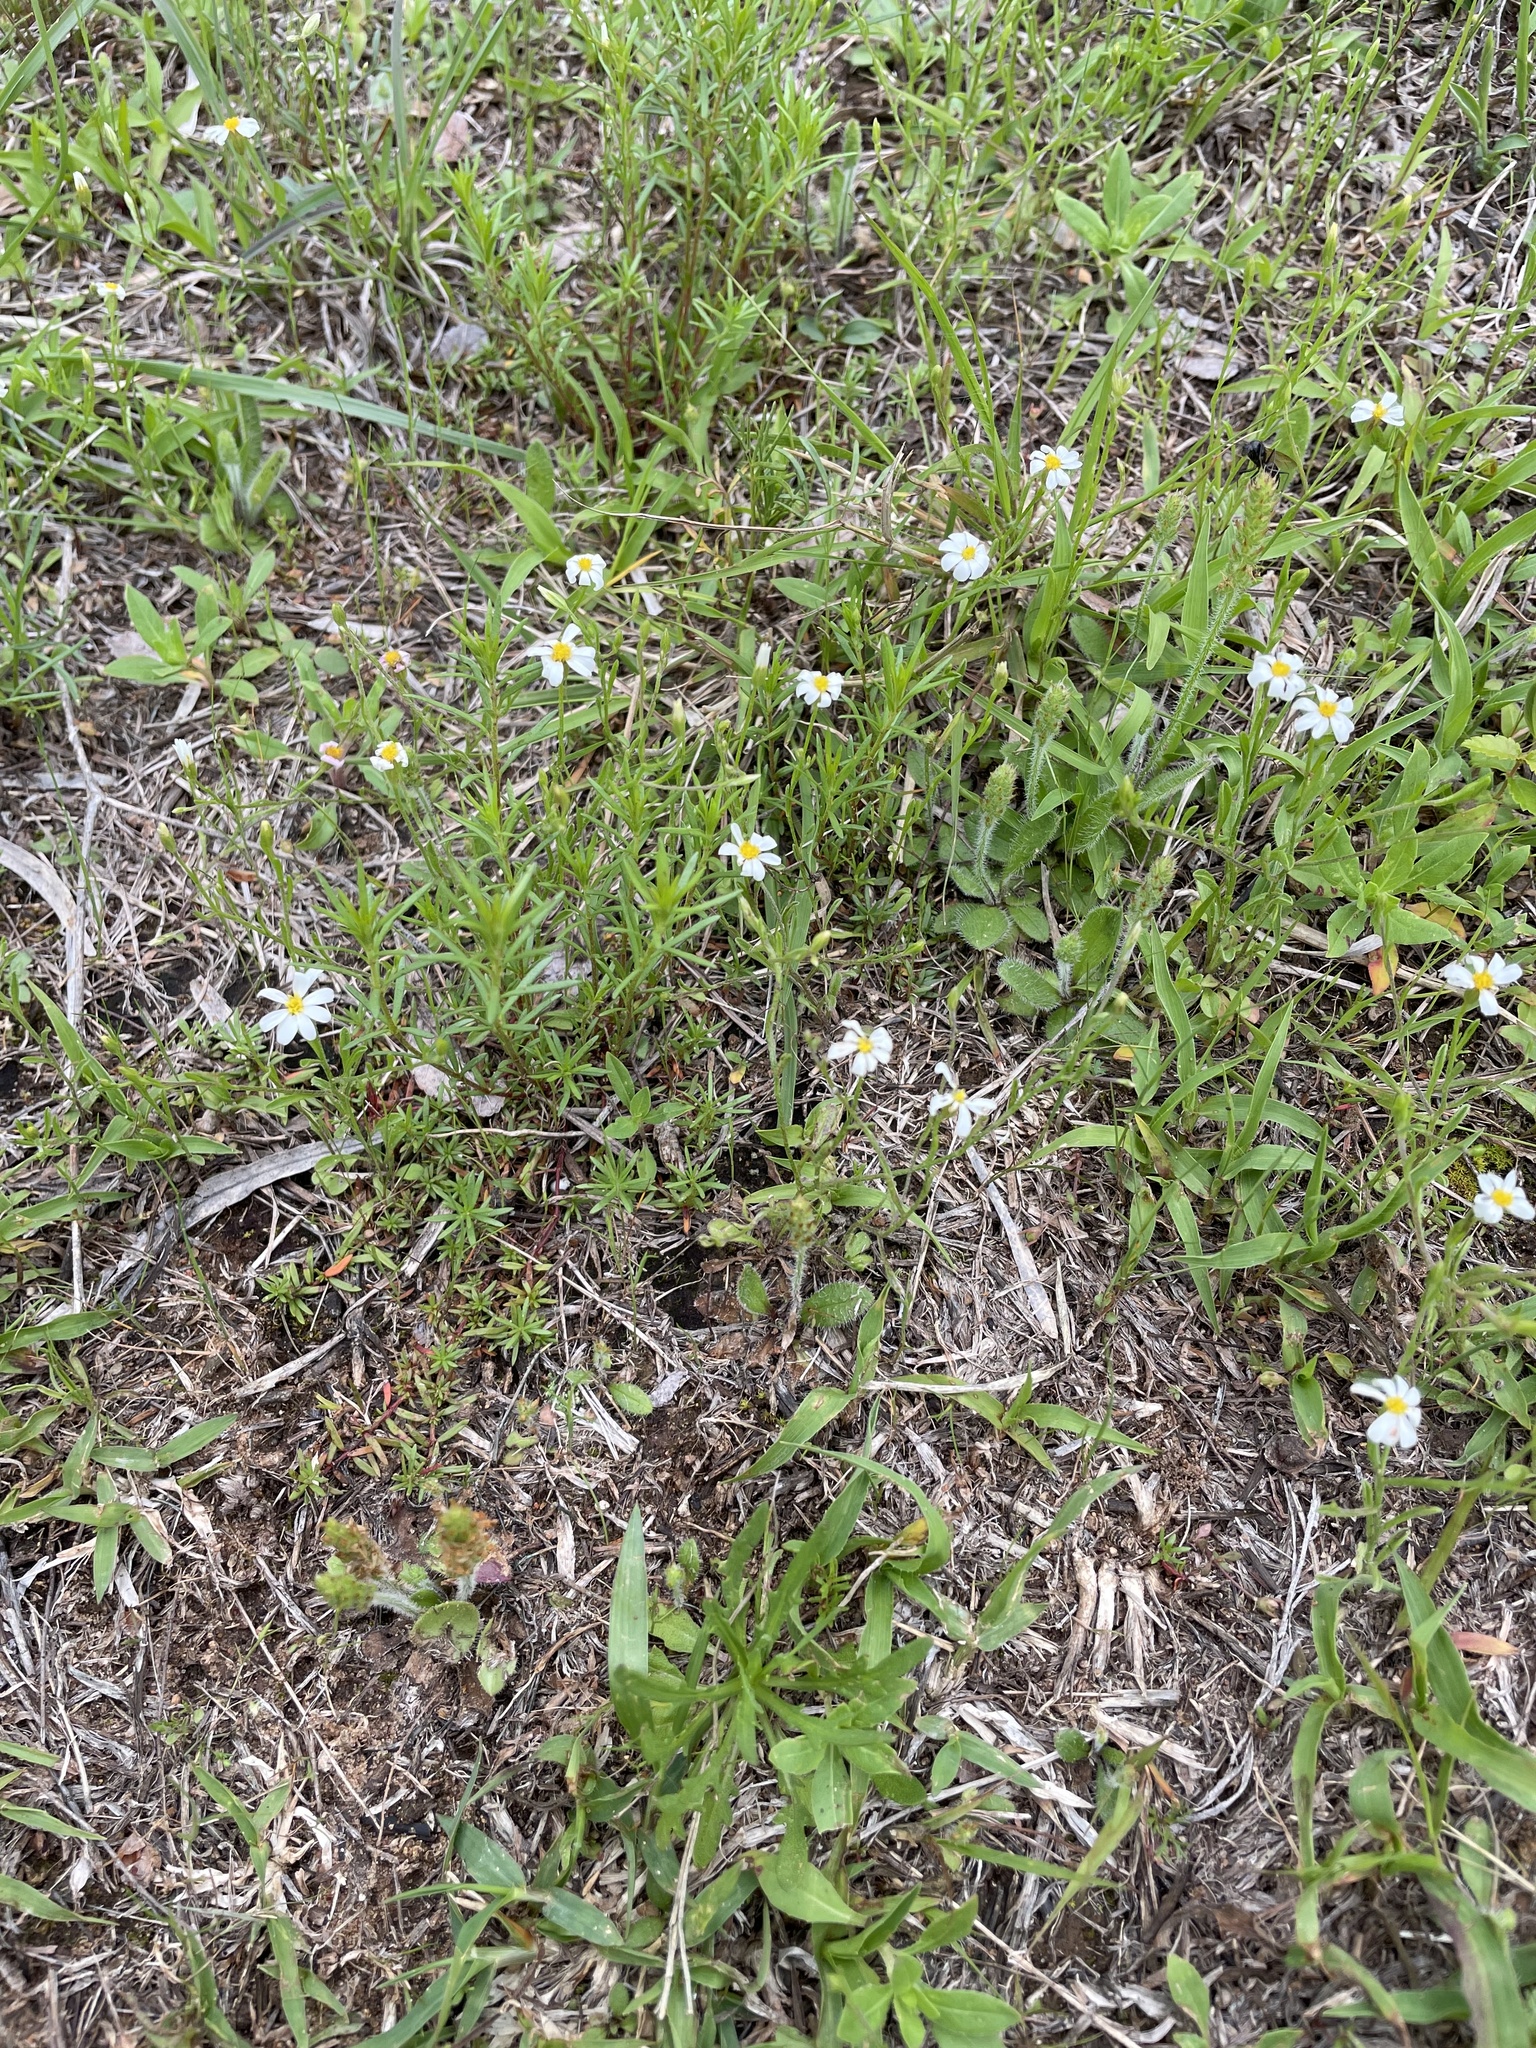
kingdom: Plantae
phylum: Tracheophyta
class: Magnoliopsida
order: Asterales
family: Asteraceae
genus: Chaetopappa
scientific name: Chaetopappa asteroides
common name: Tiny lazy daisy
